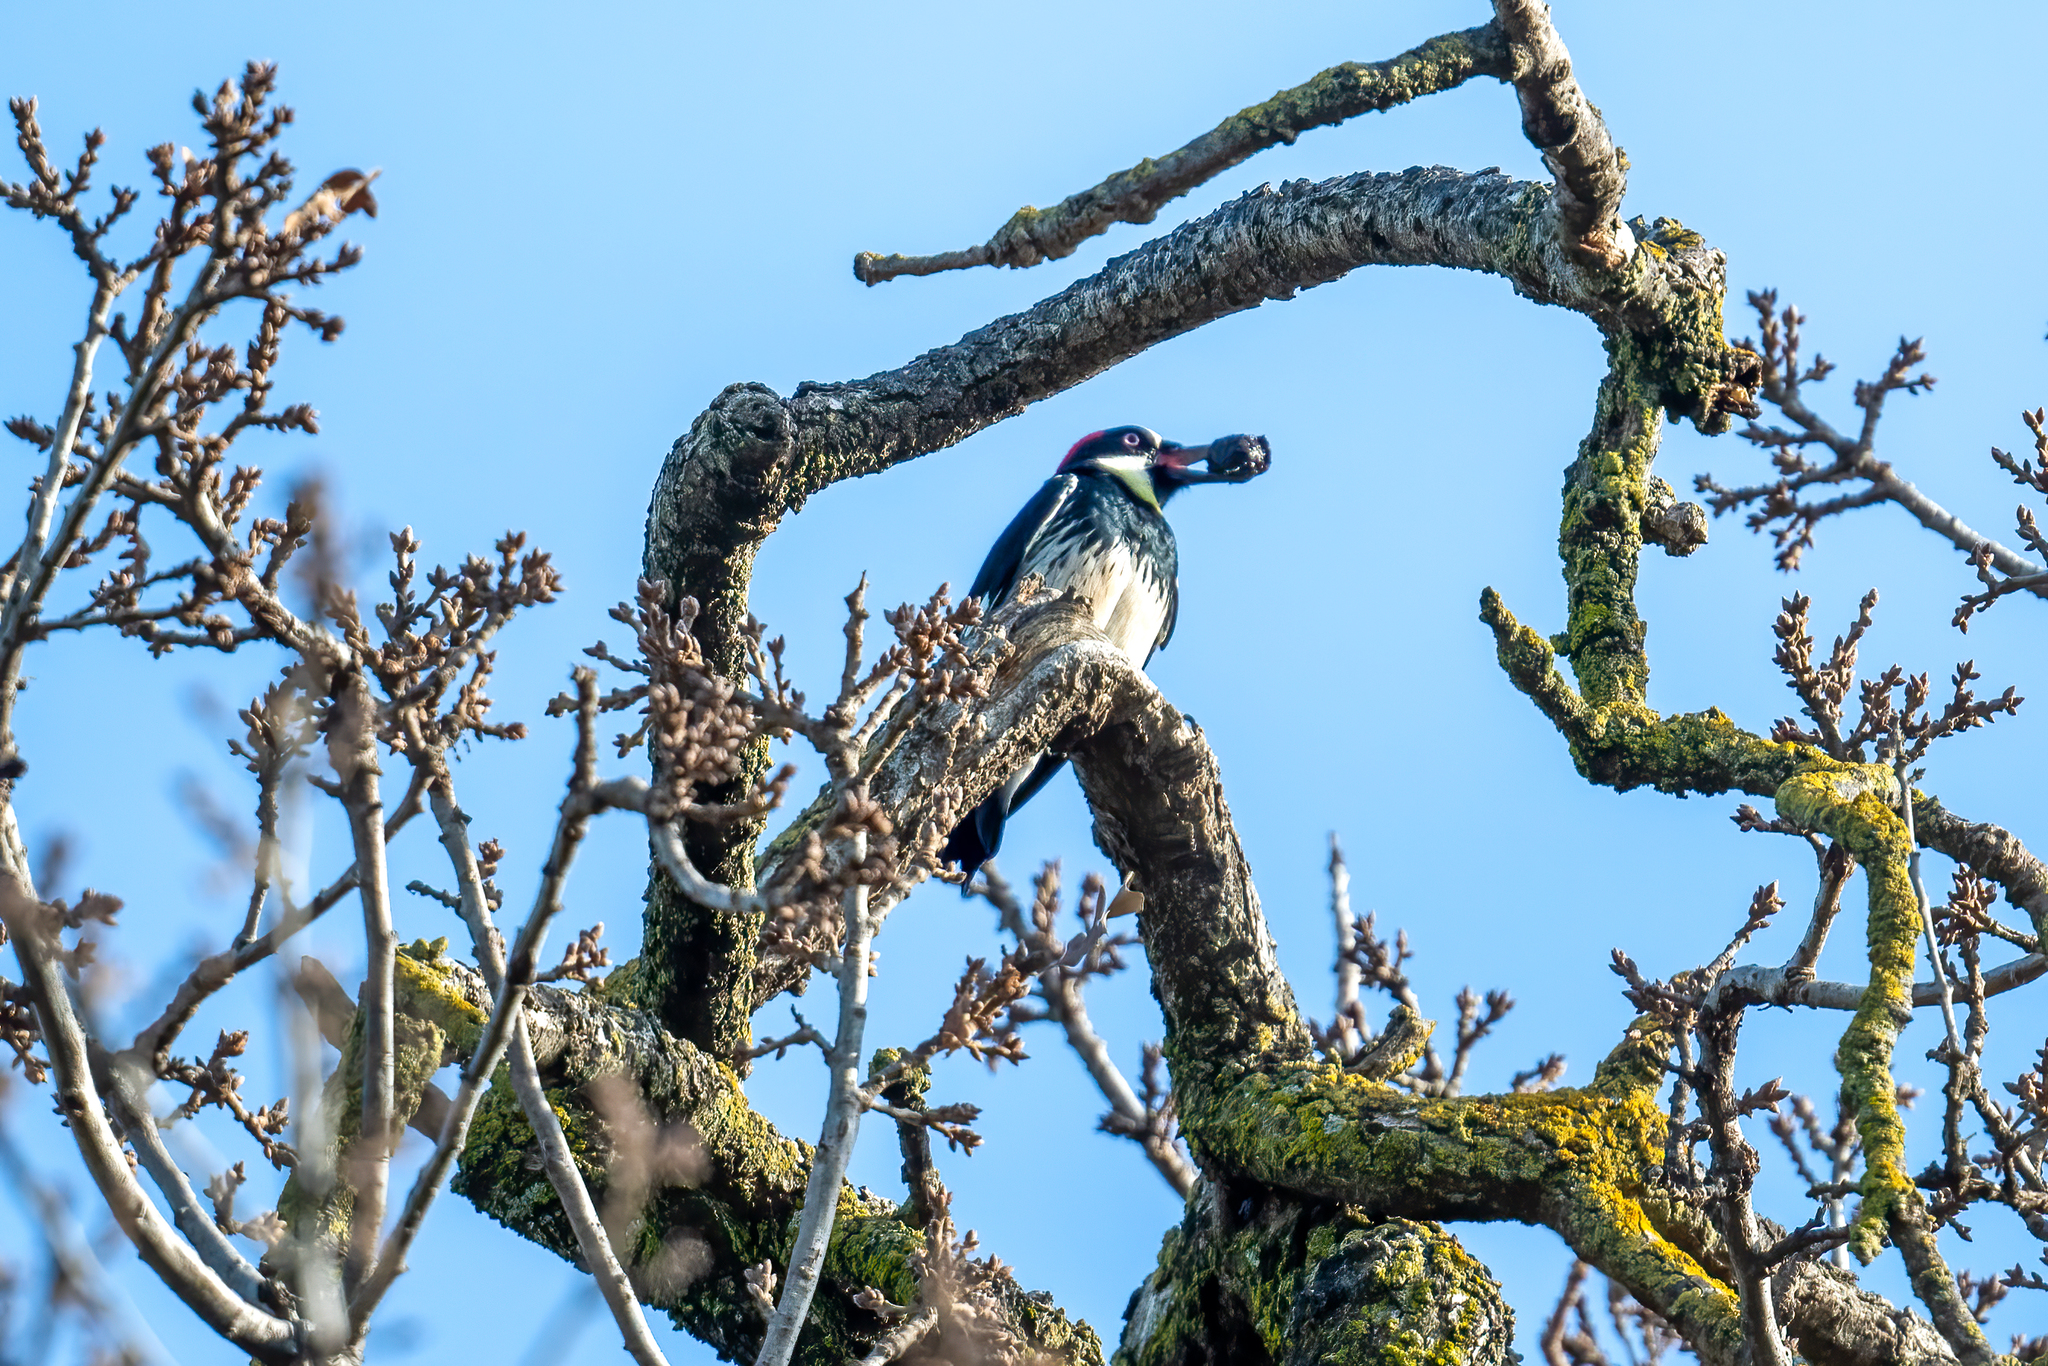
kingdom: Animalia
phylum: Chordata
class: Aves
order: Piciformes
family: Picidae
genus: Melanerpes
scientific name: Melanerpes formicivorus
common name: Acorn woodpecker
